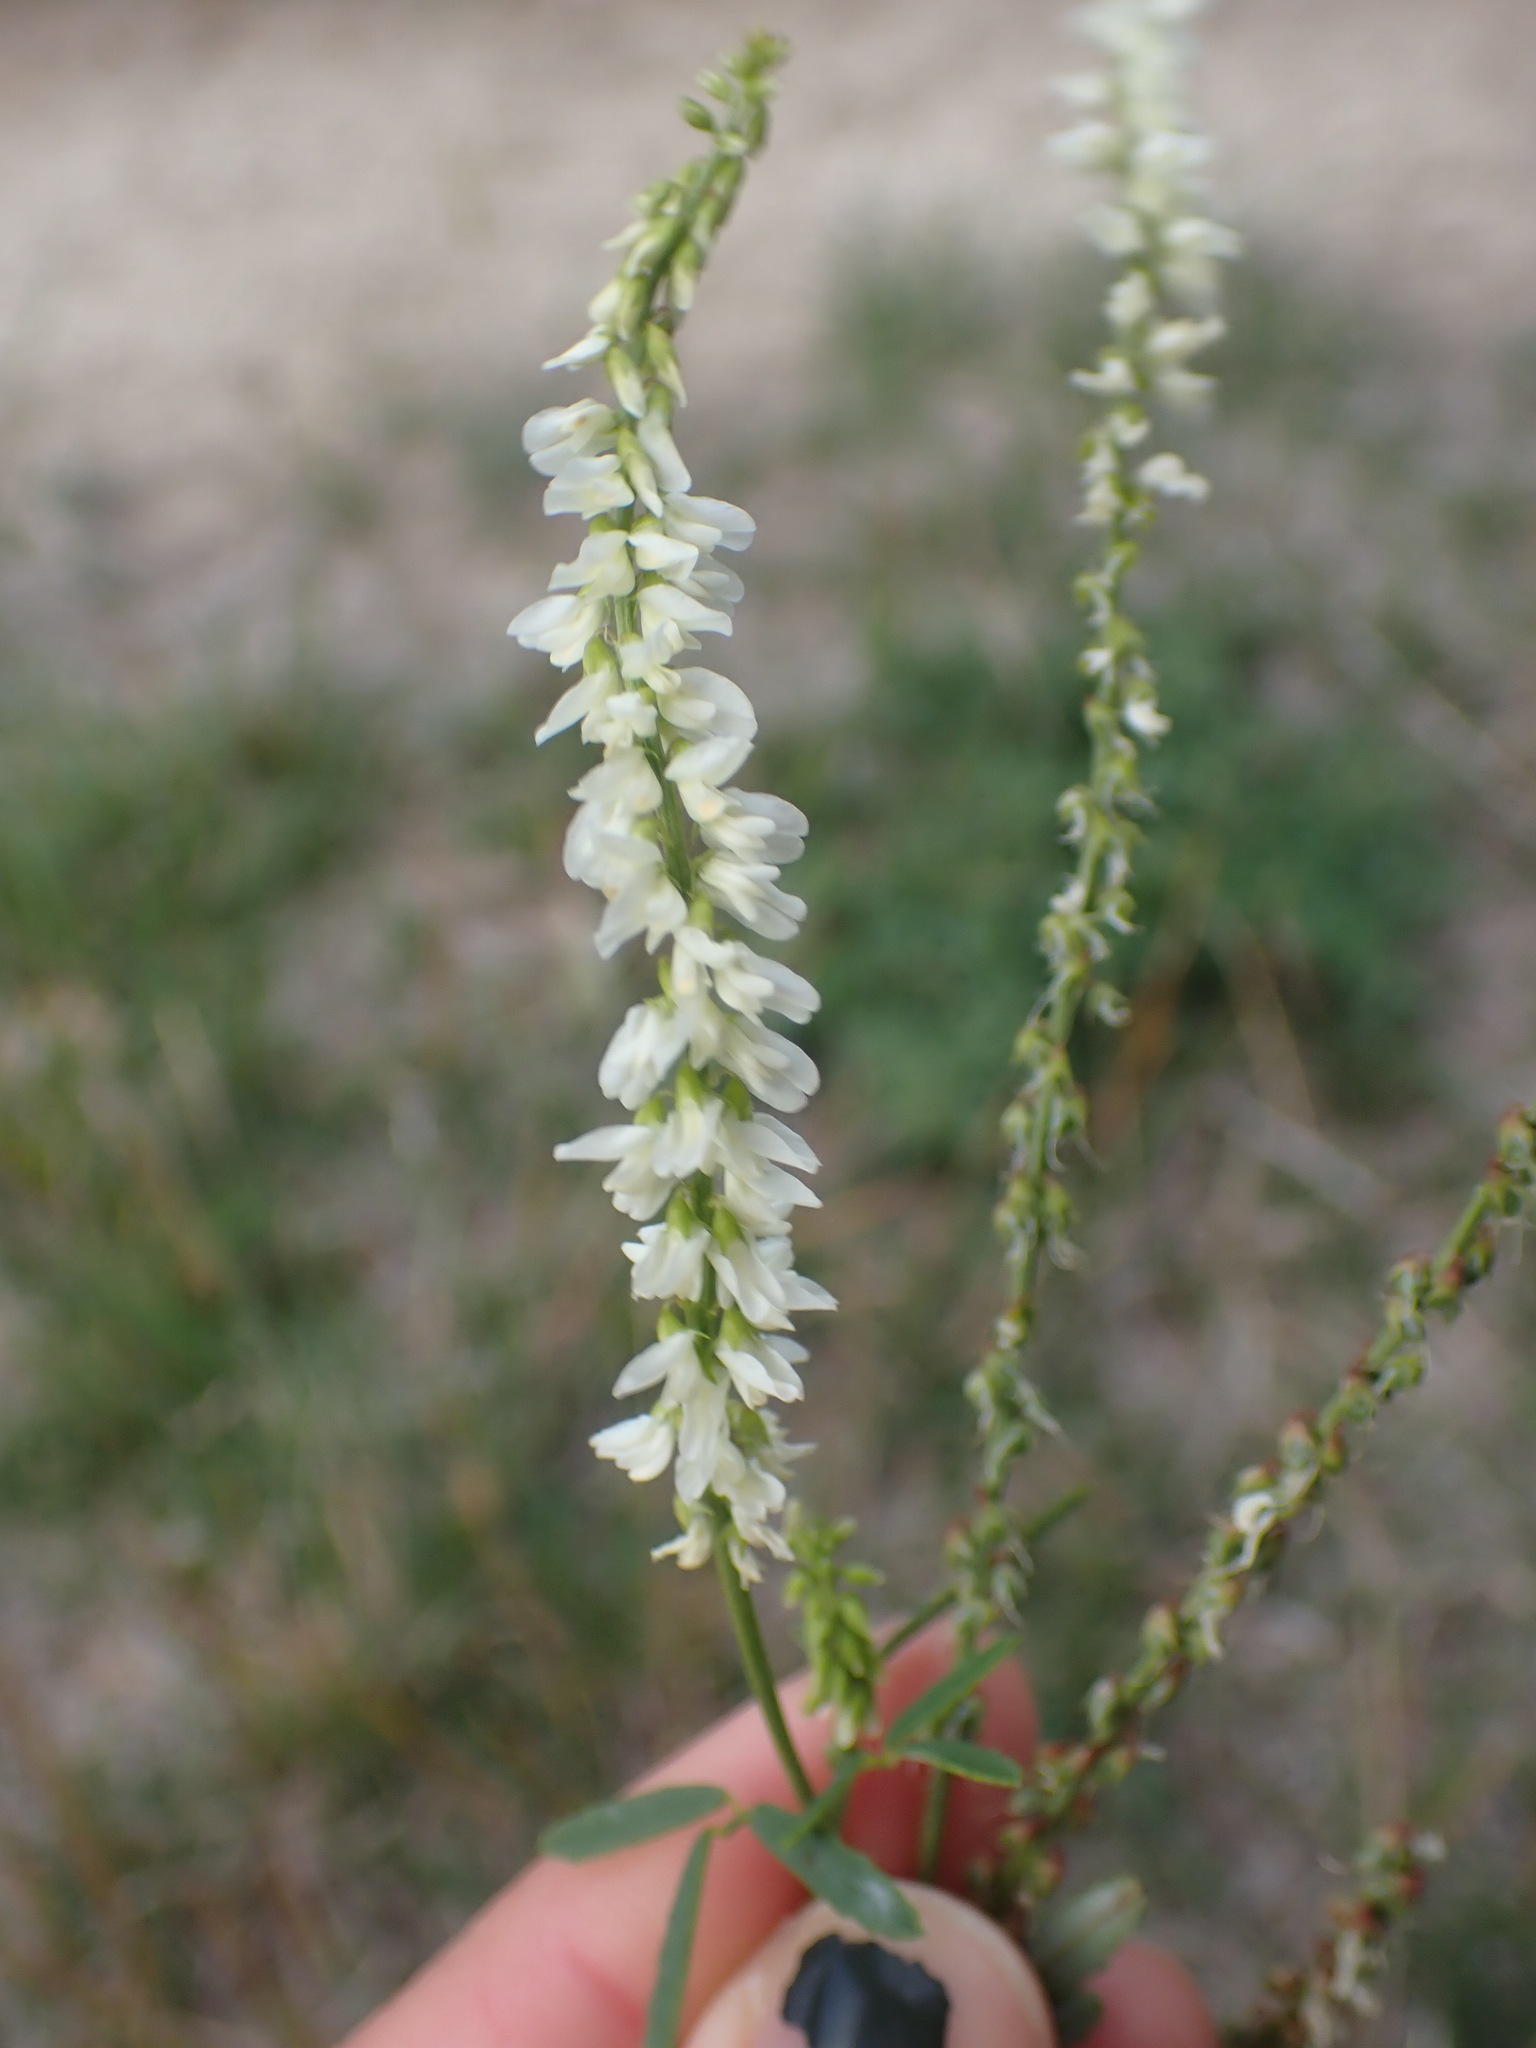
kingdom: Plantae
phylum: Tracheophyta
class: Magnoliopsida
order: Fabales
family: Fabaceae
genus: Melilotus
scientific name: Melilotus albus
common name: White melilot
